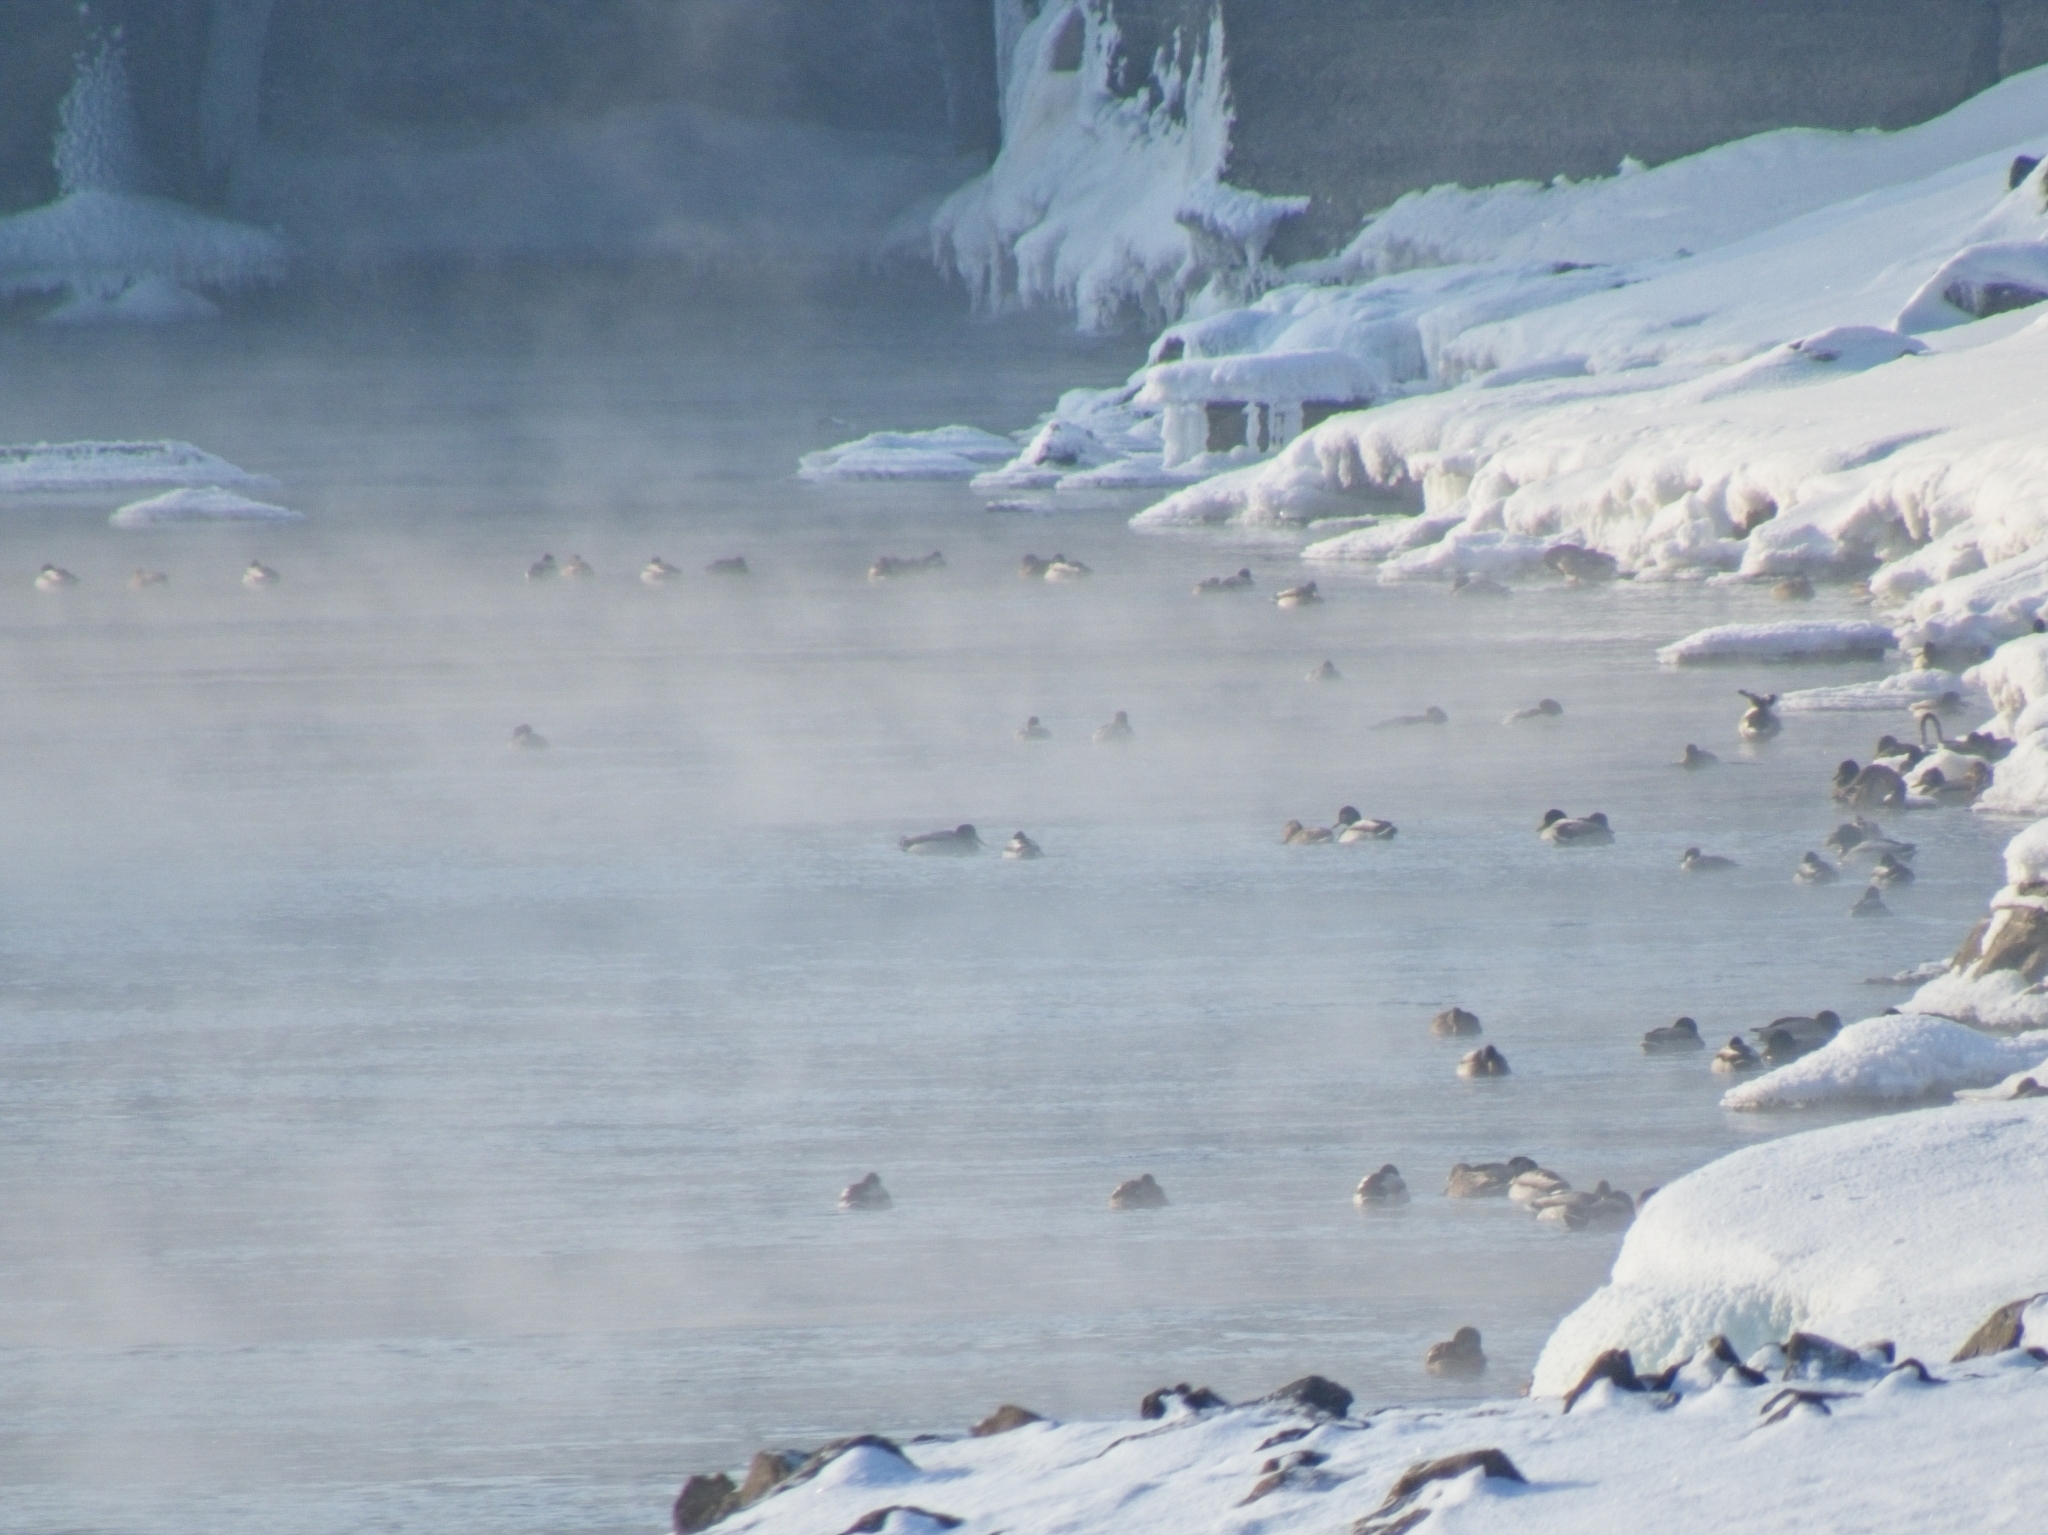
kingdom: Animalia
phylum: Chordata
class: Aves
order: Anseriformes
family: Anatidae
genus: Anas
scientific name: Anas platyrhynchos
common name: Mallard
